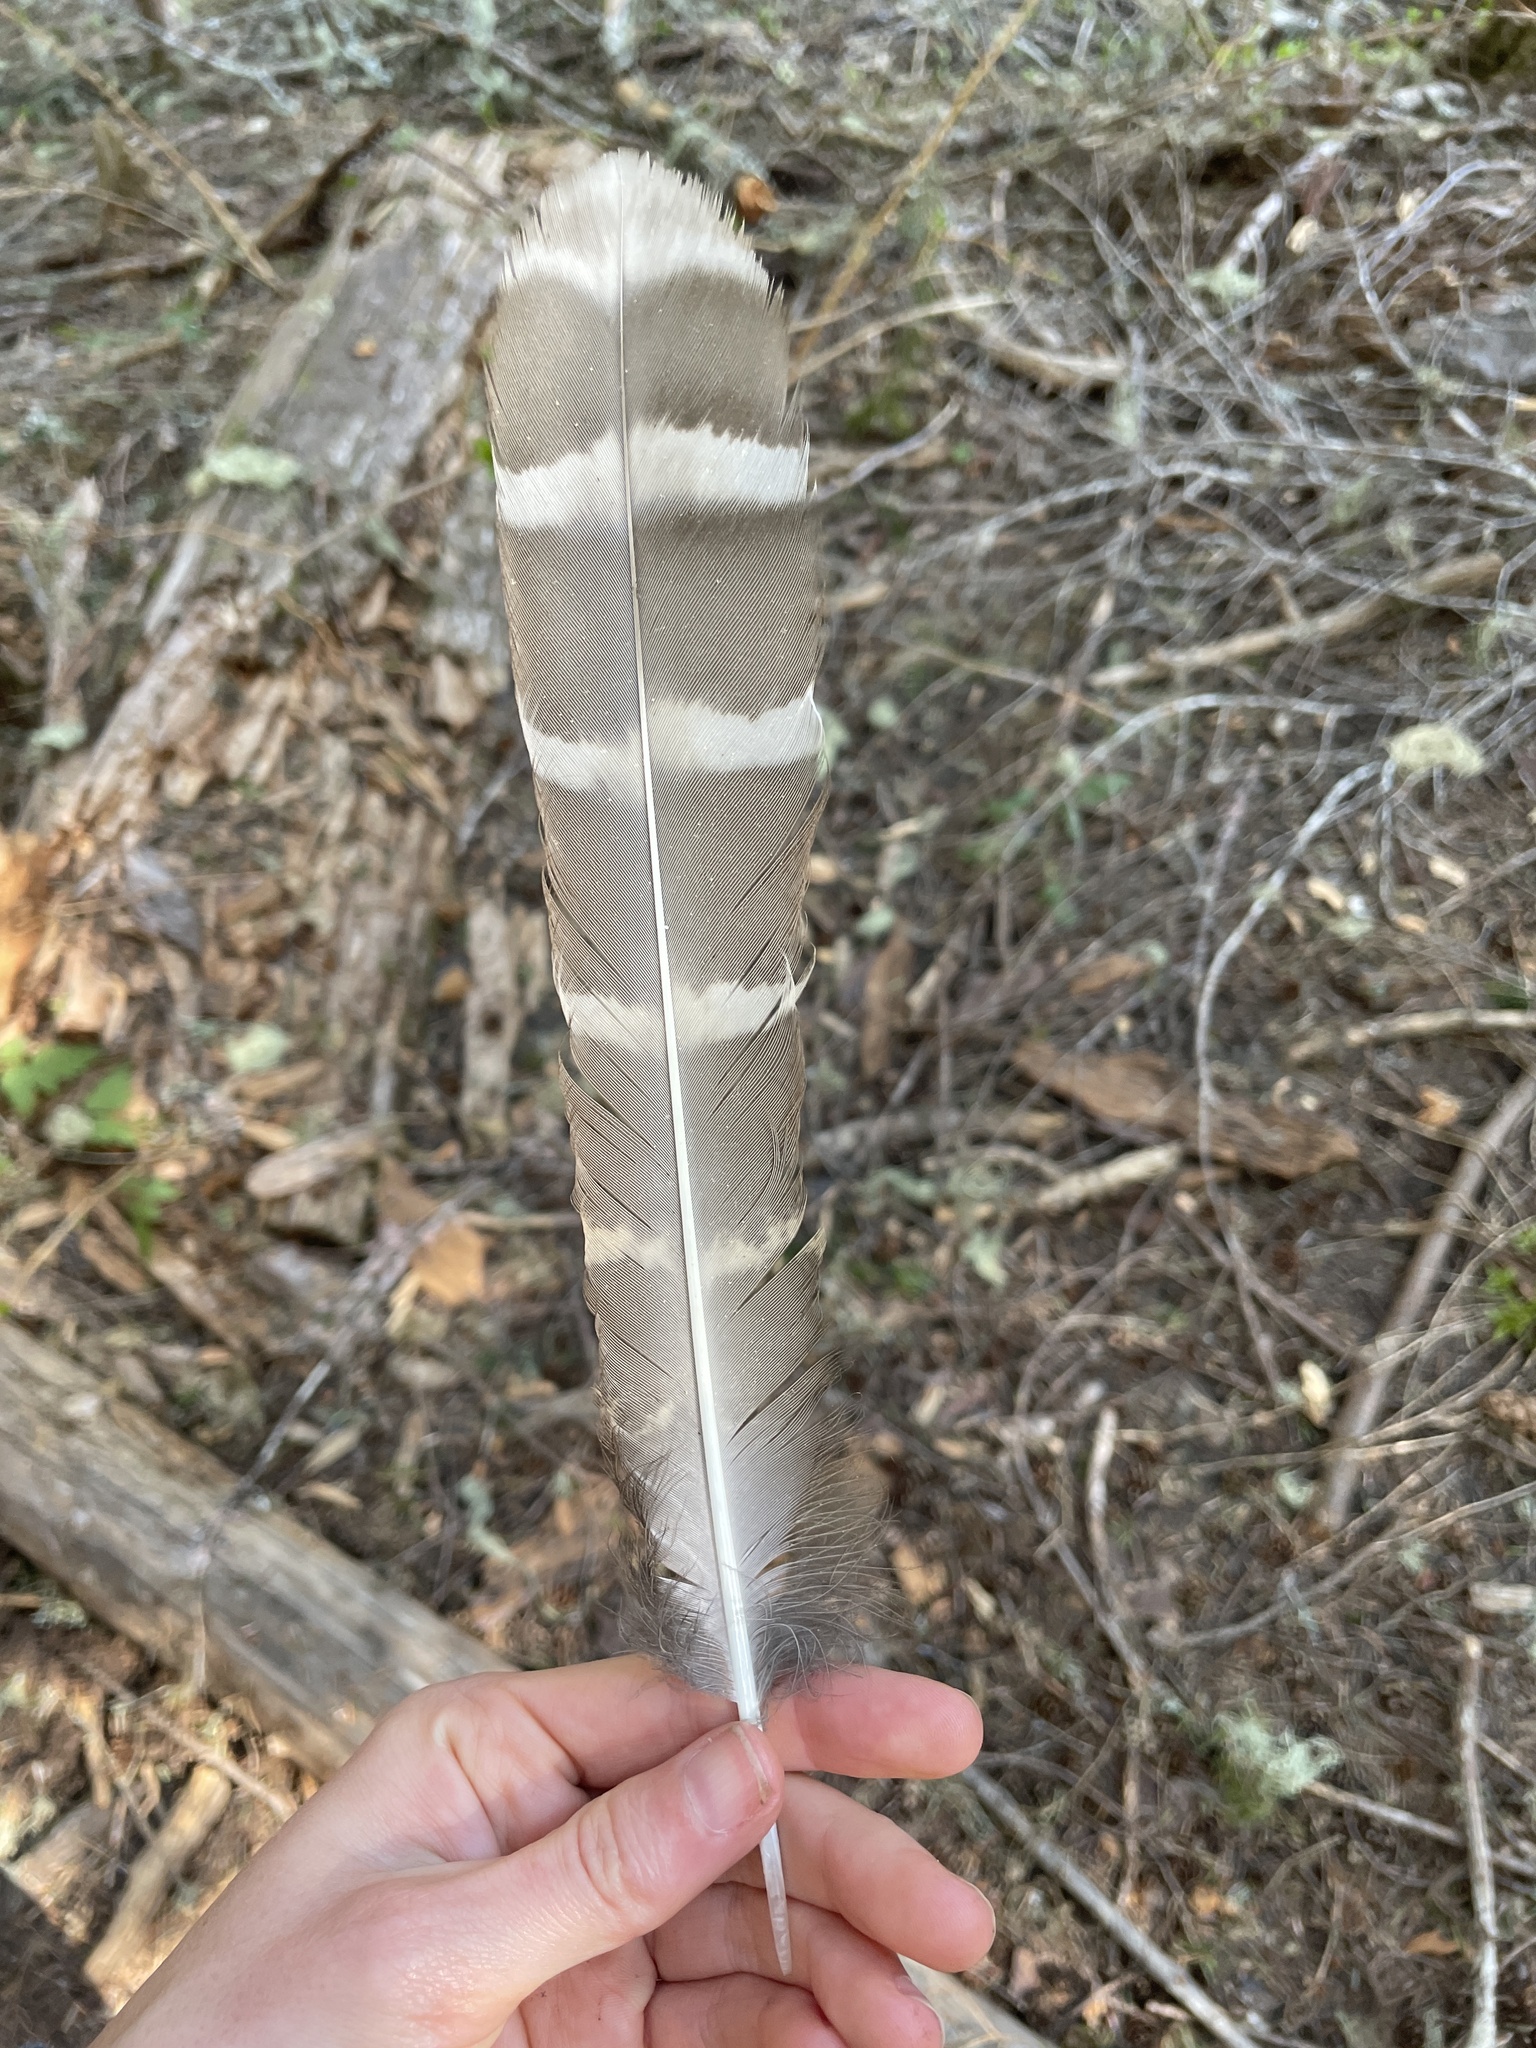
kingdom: Animalia
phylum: Chordata
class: Aves
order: Strigiformes
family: Strigidae
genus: Strix
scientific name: Strix varia
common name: Barred owl
